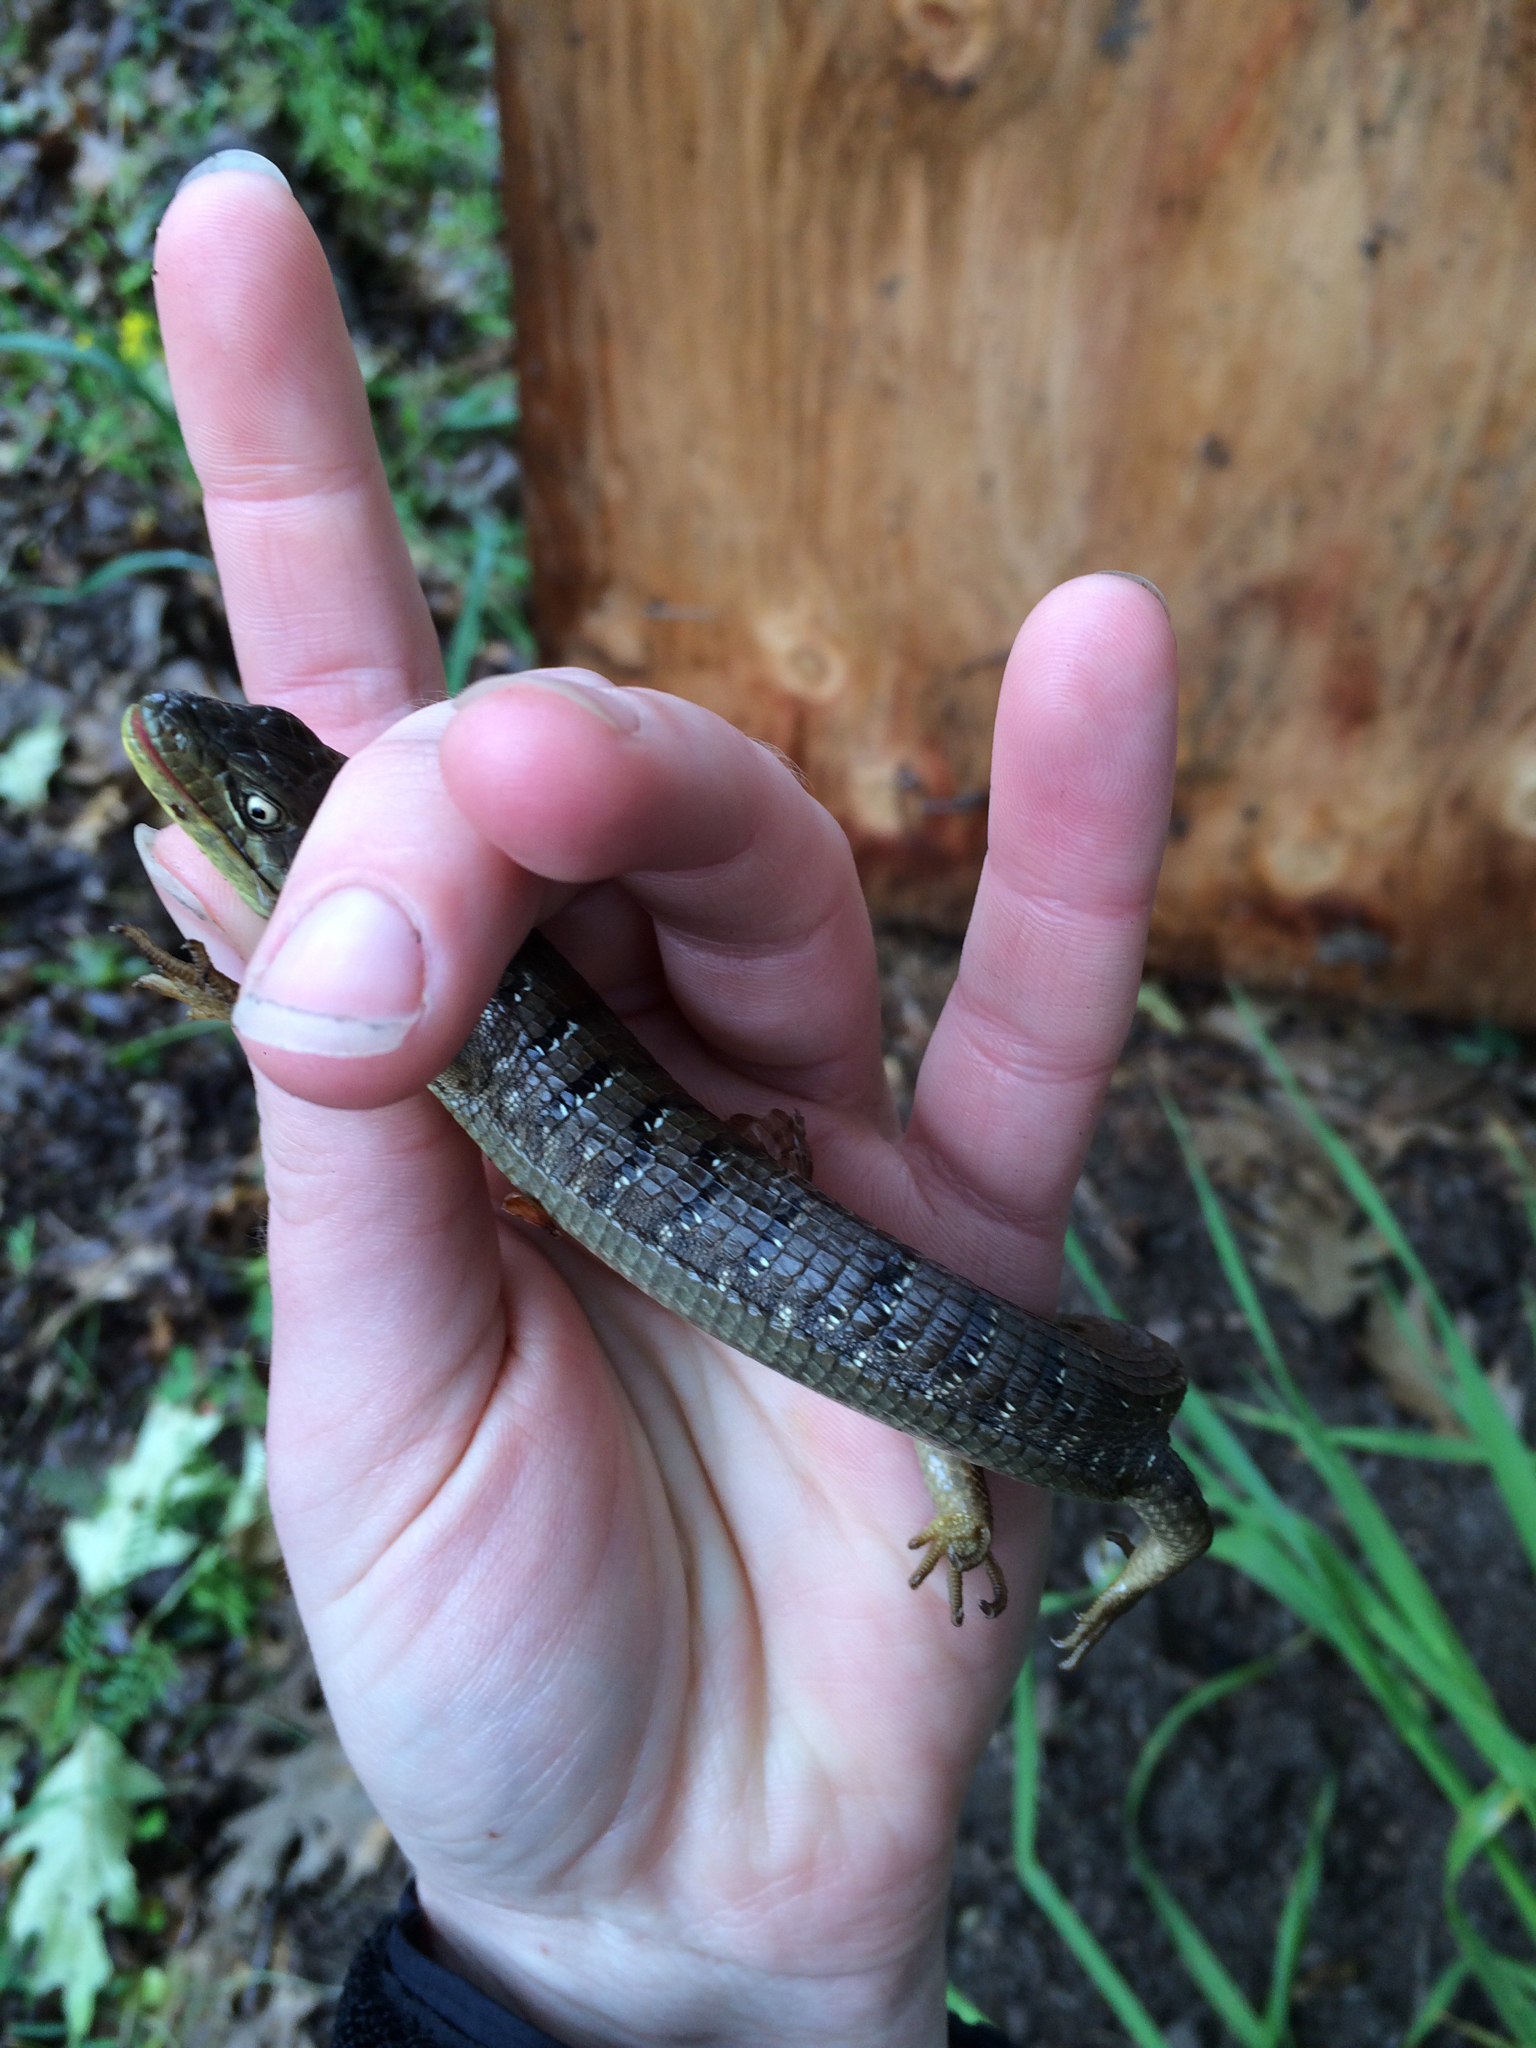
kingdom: Animalia
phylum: Chordata
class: Squamata
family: Anguidae
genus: Elgaria
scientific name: Elgaria multicarinata
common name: Southern alligator lizard
